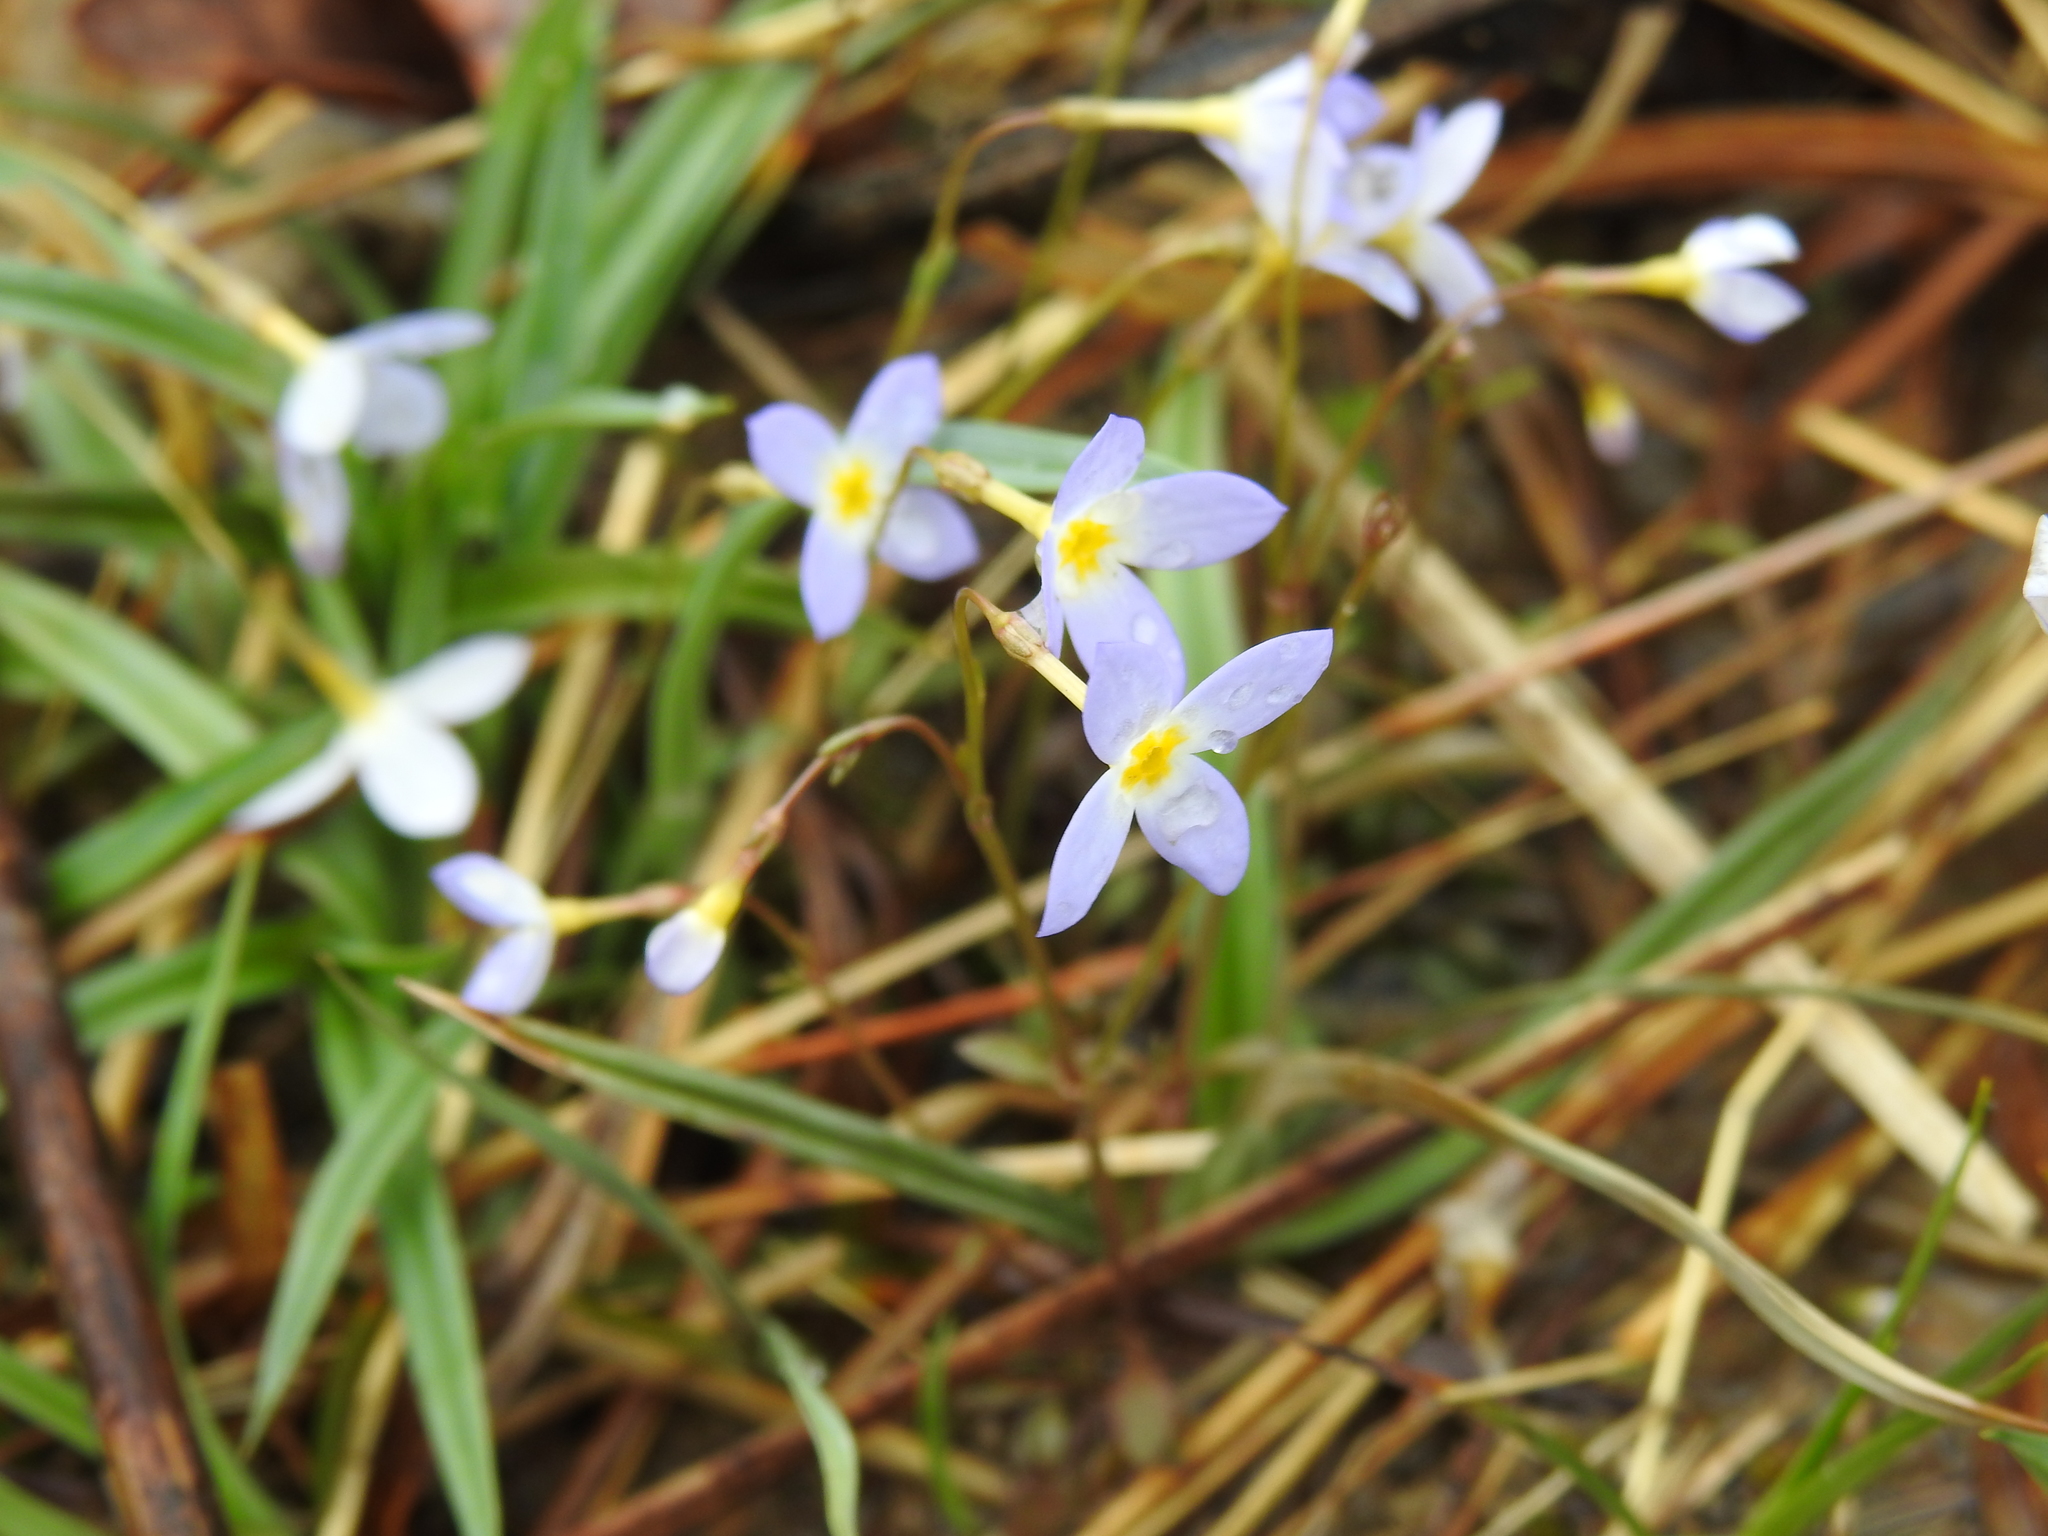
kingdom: Plantae
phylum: Tracheophyta
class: Magnoliopsida
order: Gentianales
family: Rubiaceae
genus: Houstonia
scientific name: Houstonia caerulea
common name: Bluets
